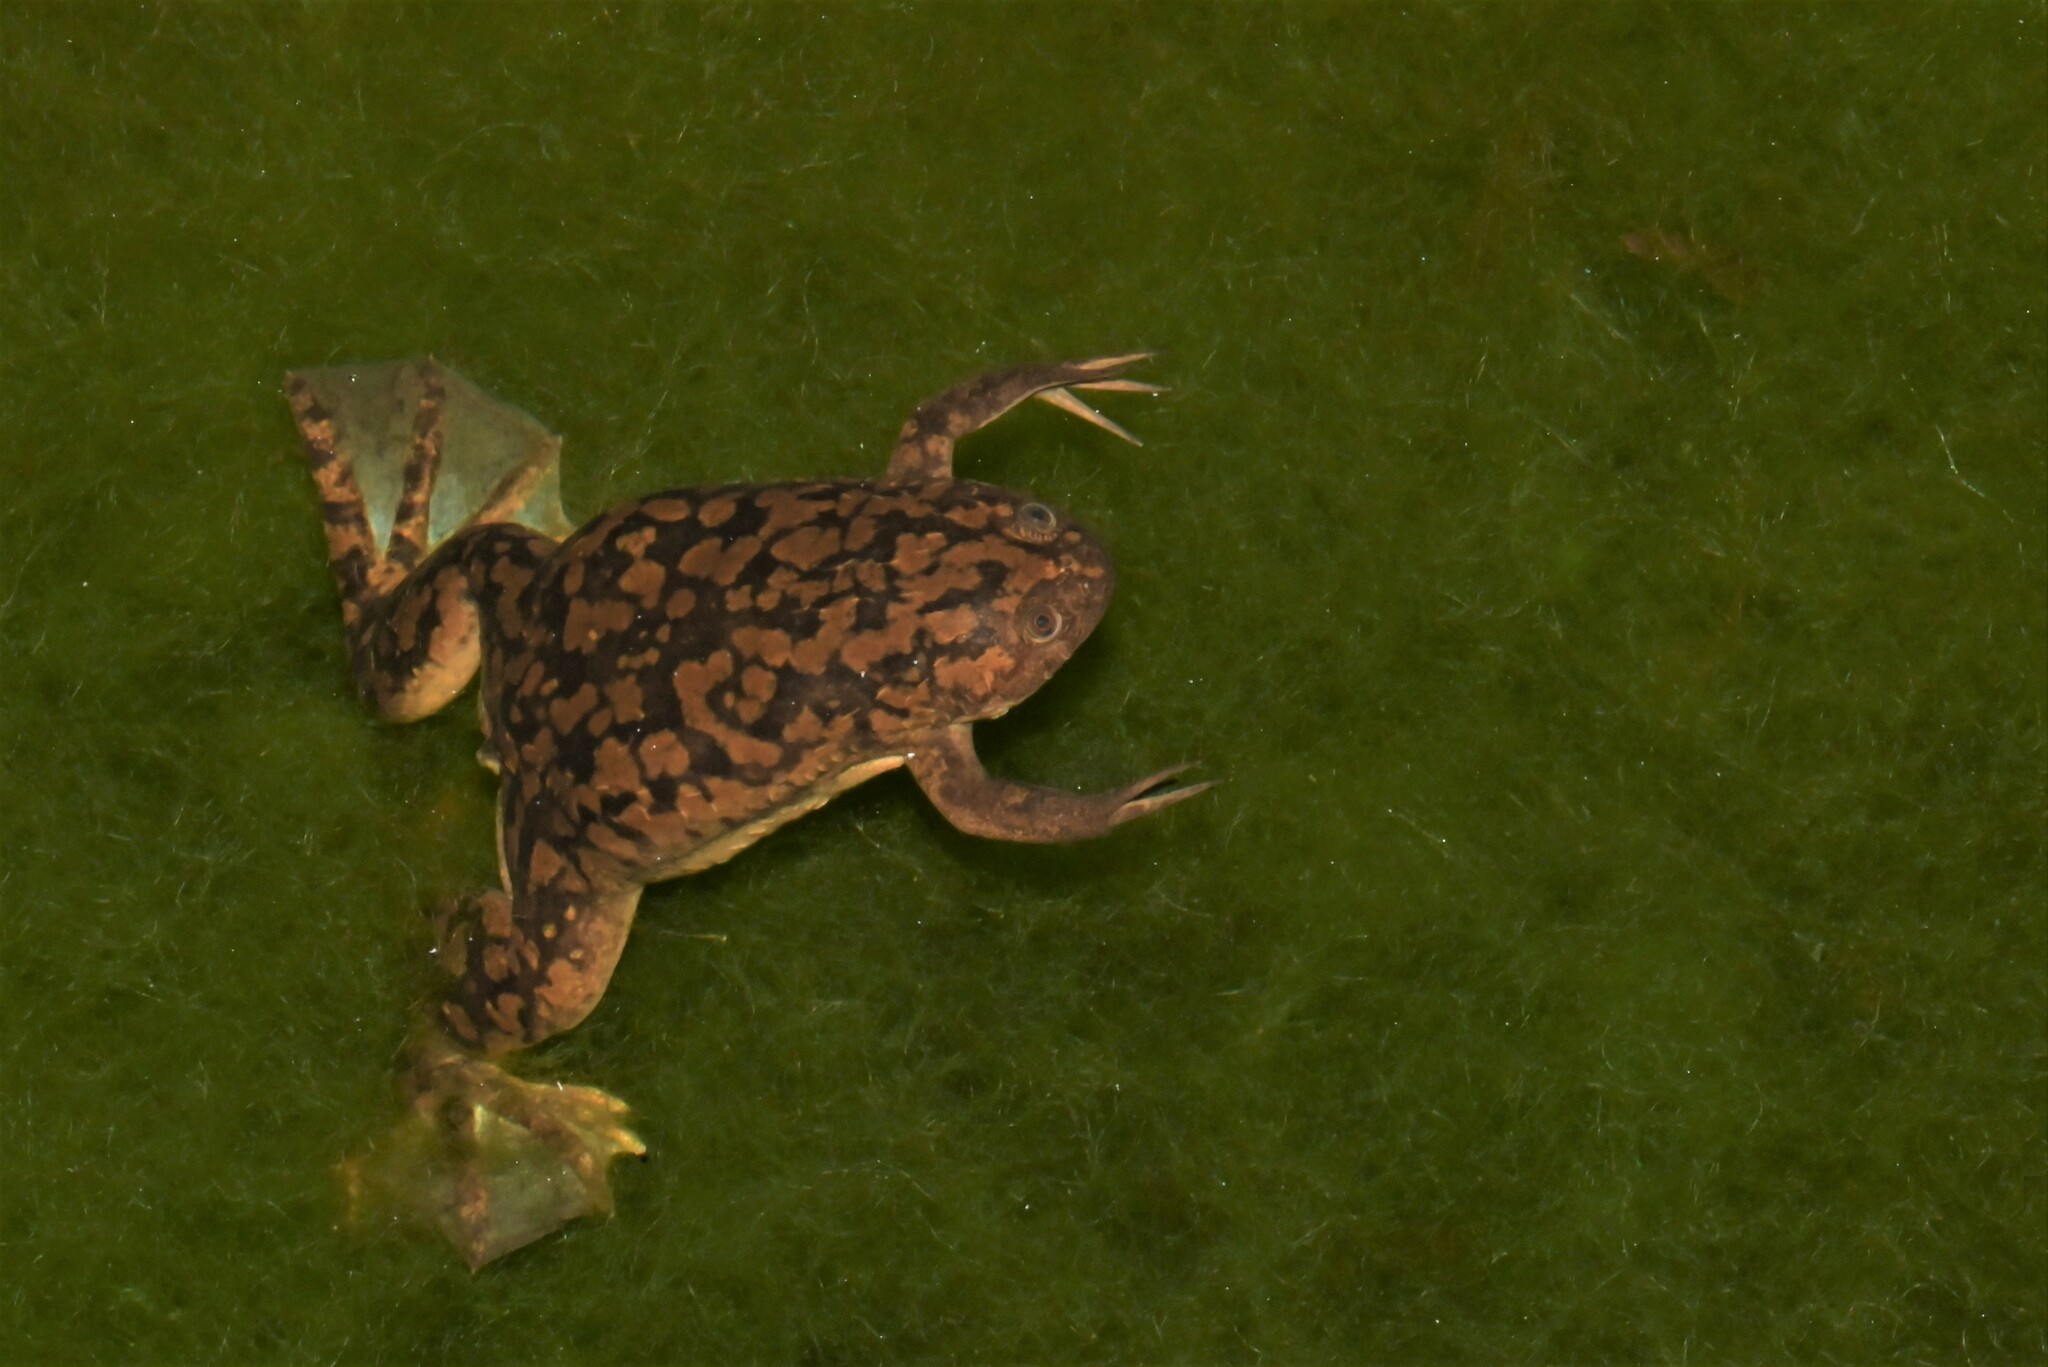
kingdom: Animalia
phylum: Chordata
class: Amphibia
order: Anura
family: Pipidae
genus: Xenopus
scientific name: Xenopus laevis
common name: African clawed frog
